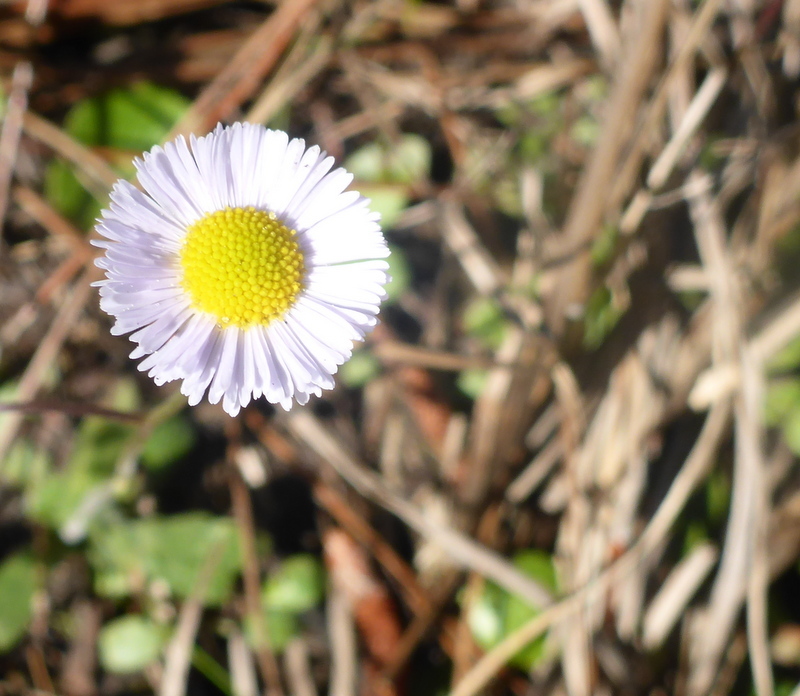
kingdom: Plantae
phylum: Tracheophyta
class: Magnoliopsida
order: Asterales
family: Asteraceae
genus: Erigeron
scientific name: Erigeron quercifolius
